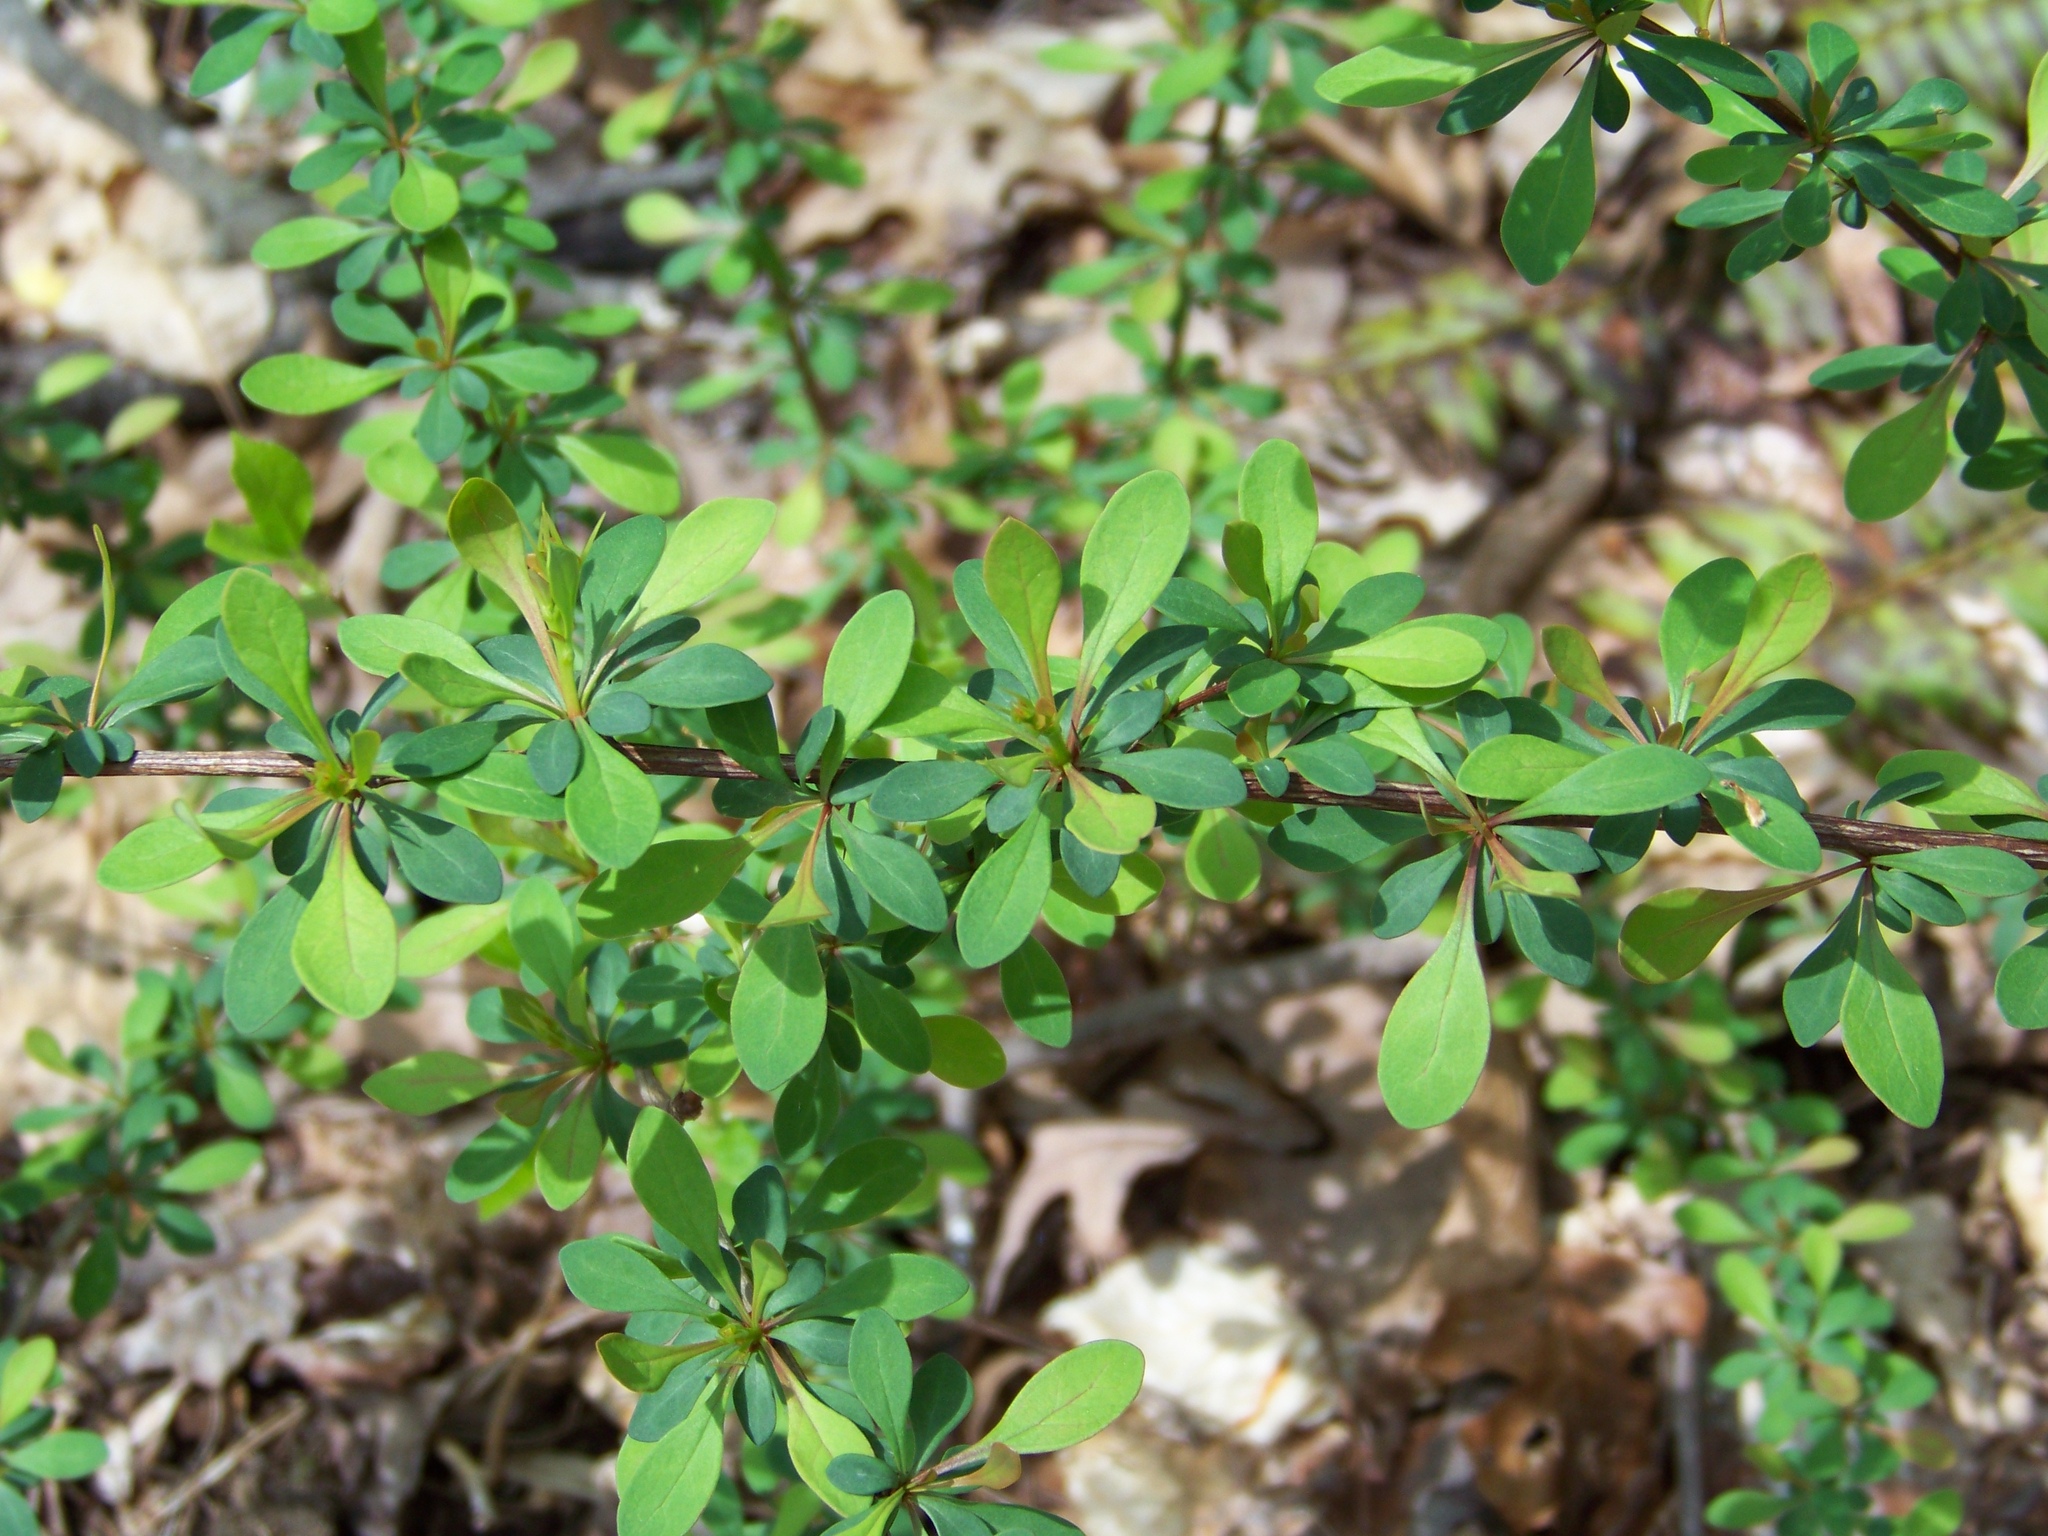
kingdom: Plantae
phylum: Tracheophyta
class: Magnoliopsida
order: Ranunculales
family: Berberidaceae
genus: Berberis
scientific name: Berberis thunbergii
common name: Japanese barberry
